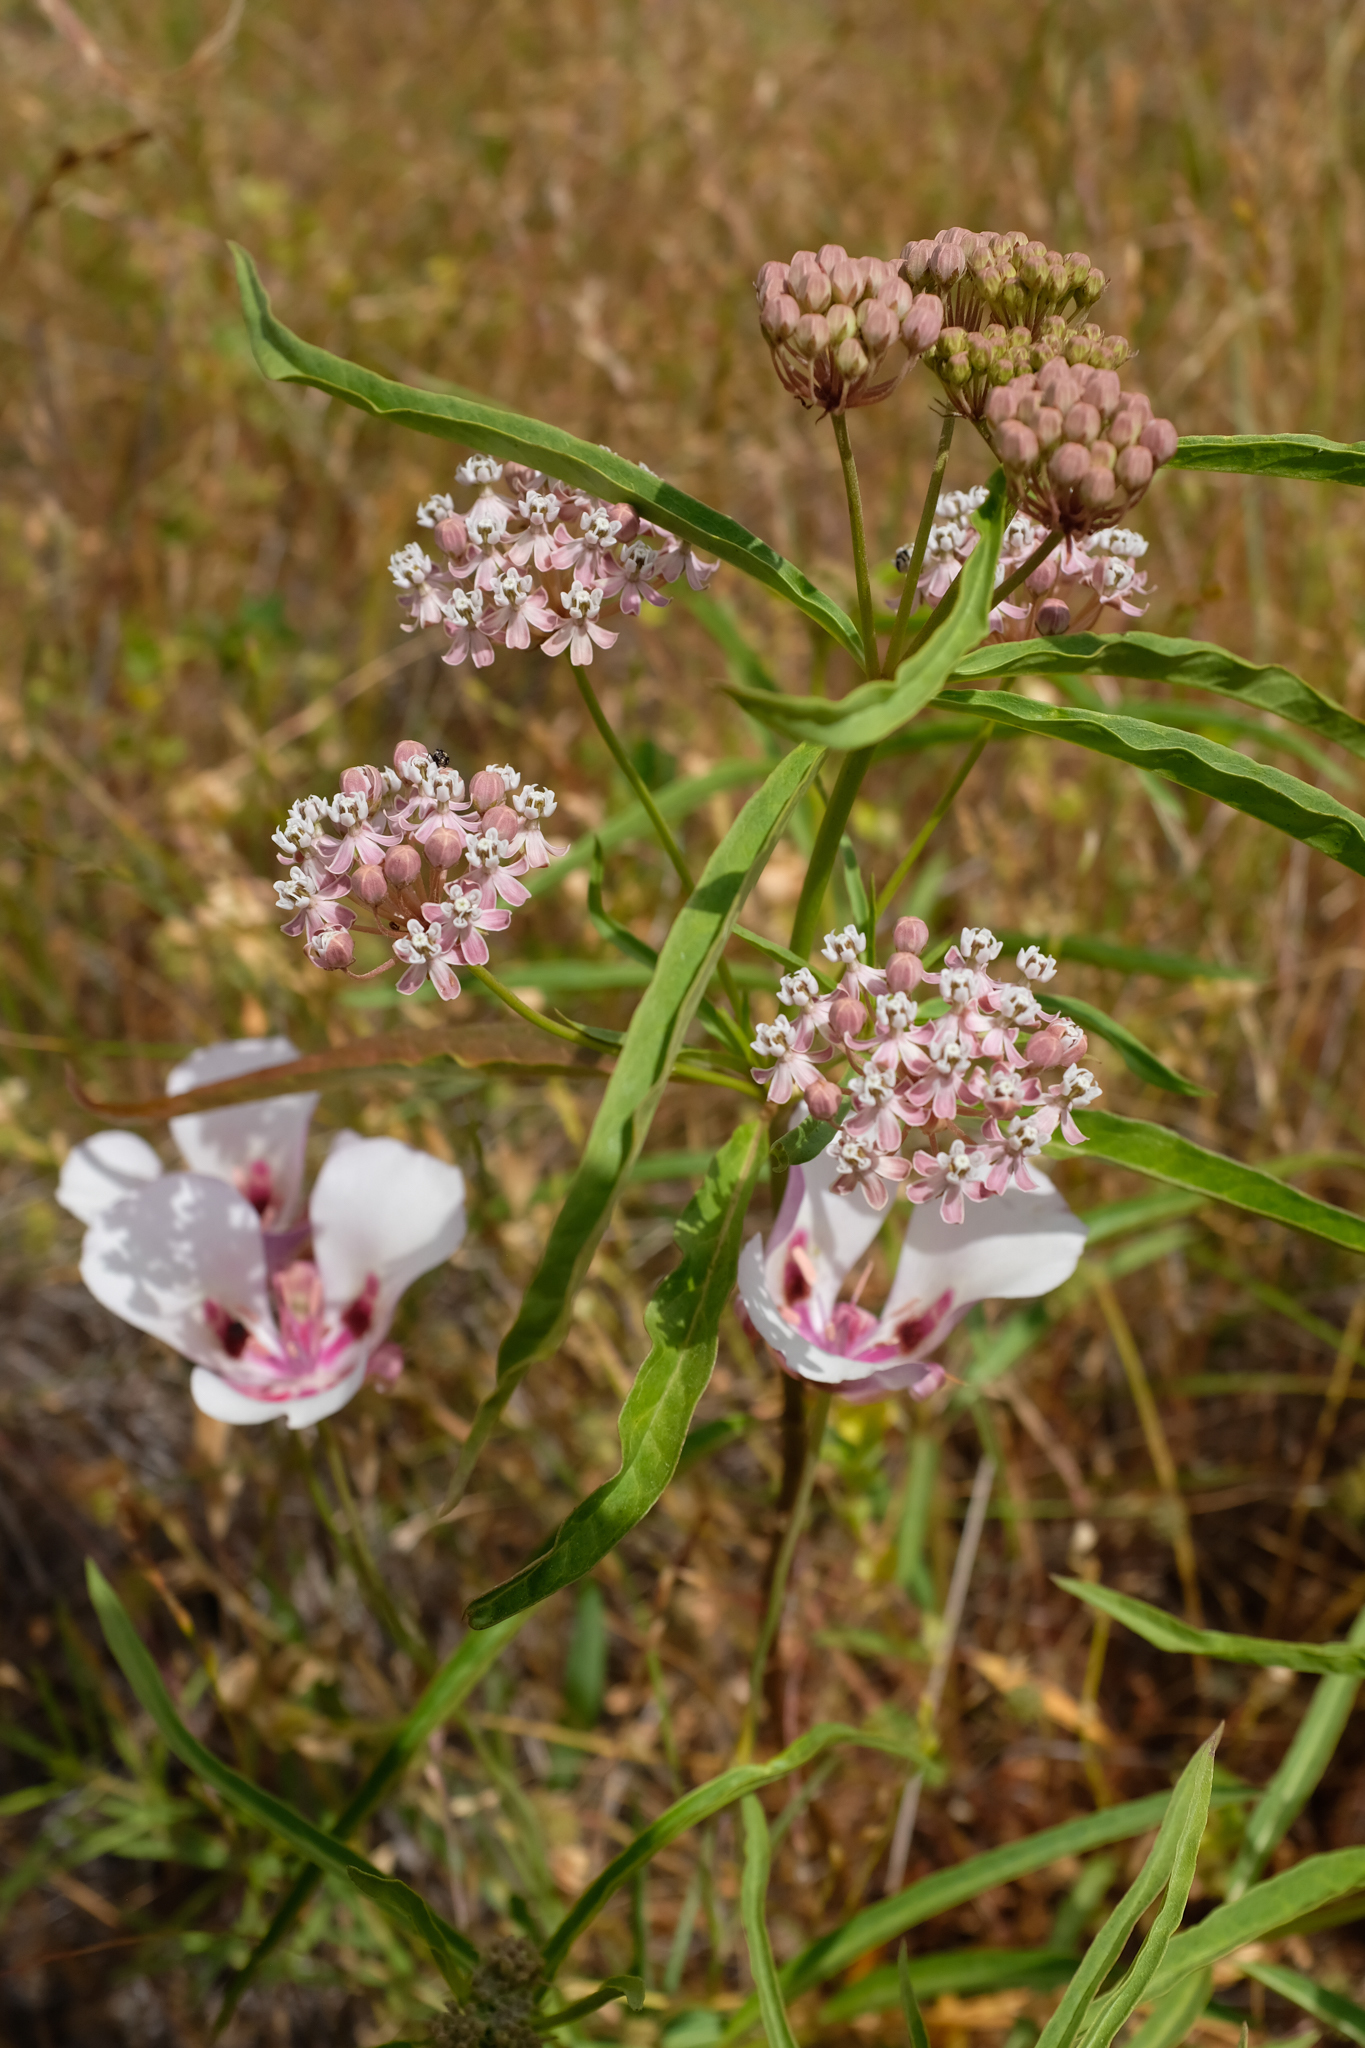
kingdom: Plantae
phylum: Tracheophyta
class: Magnoliopsida
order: Gentianales
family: Apocynaceae
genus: Asclepias
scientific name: Asclepias fascicularis
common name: Mexican milkweed
